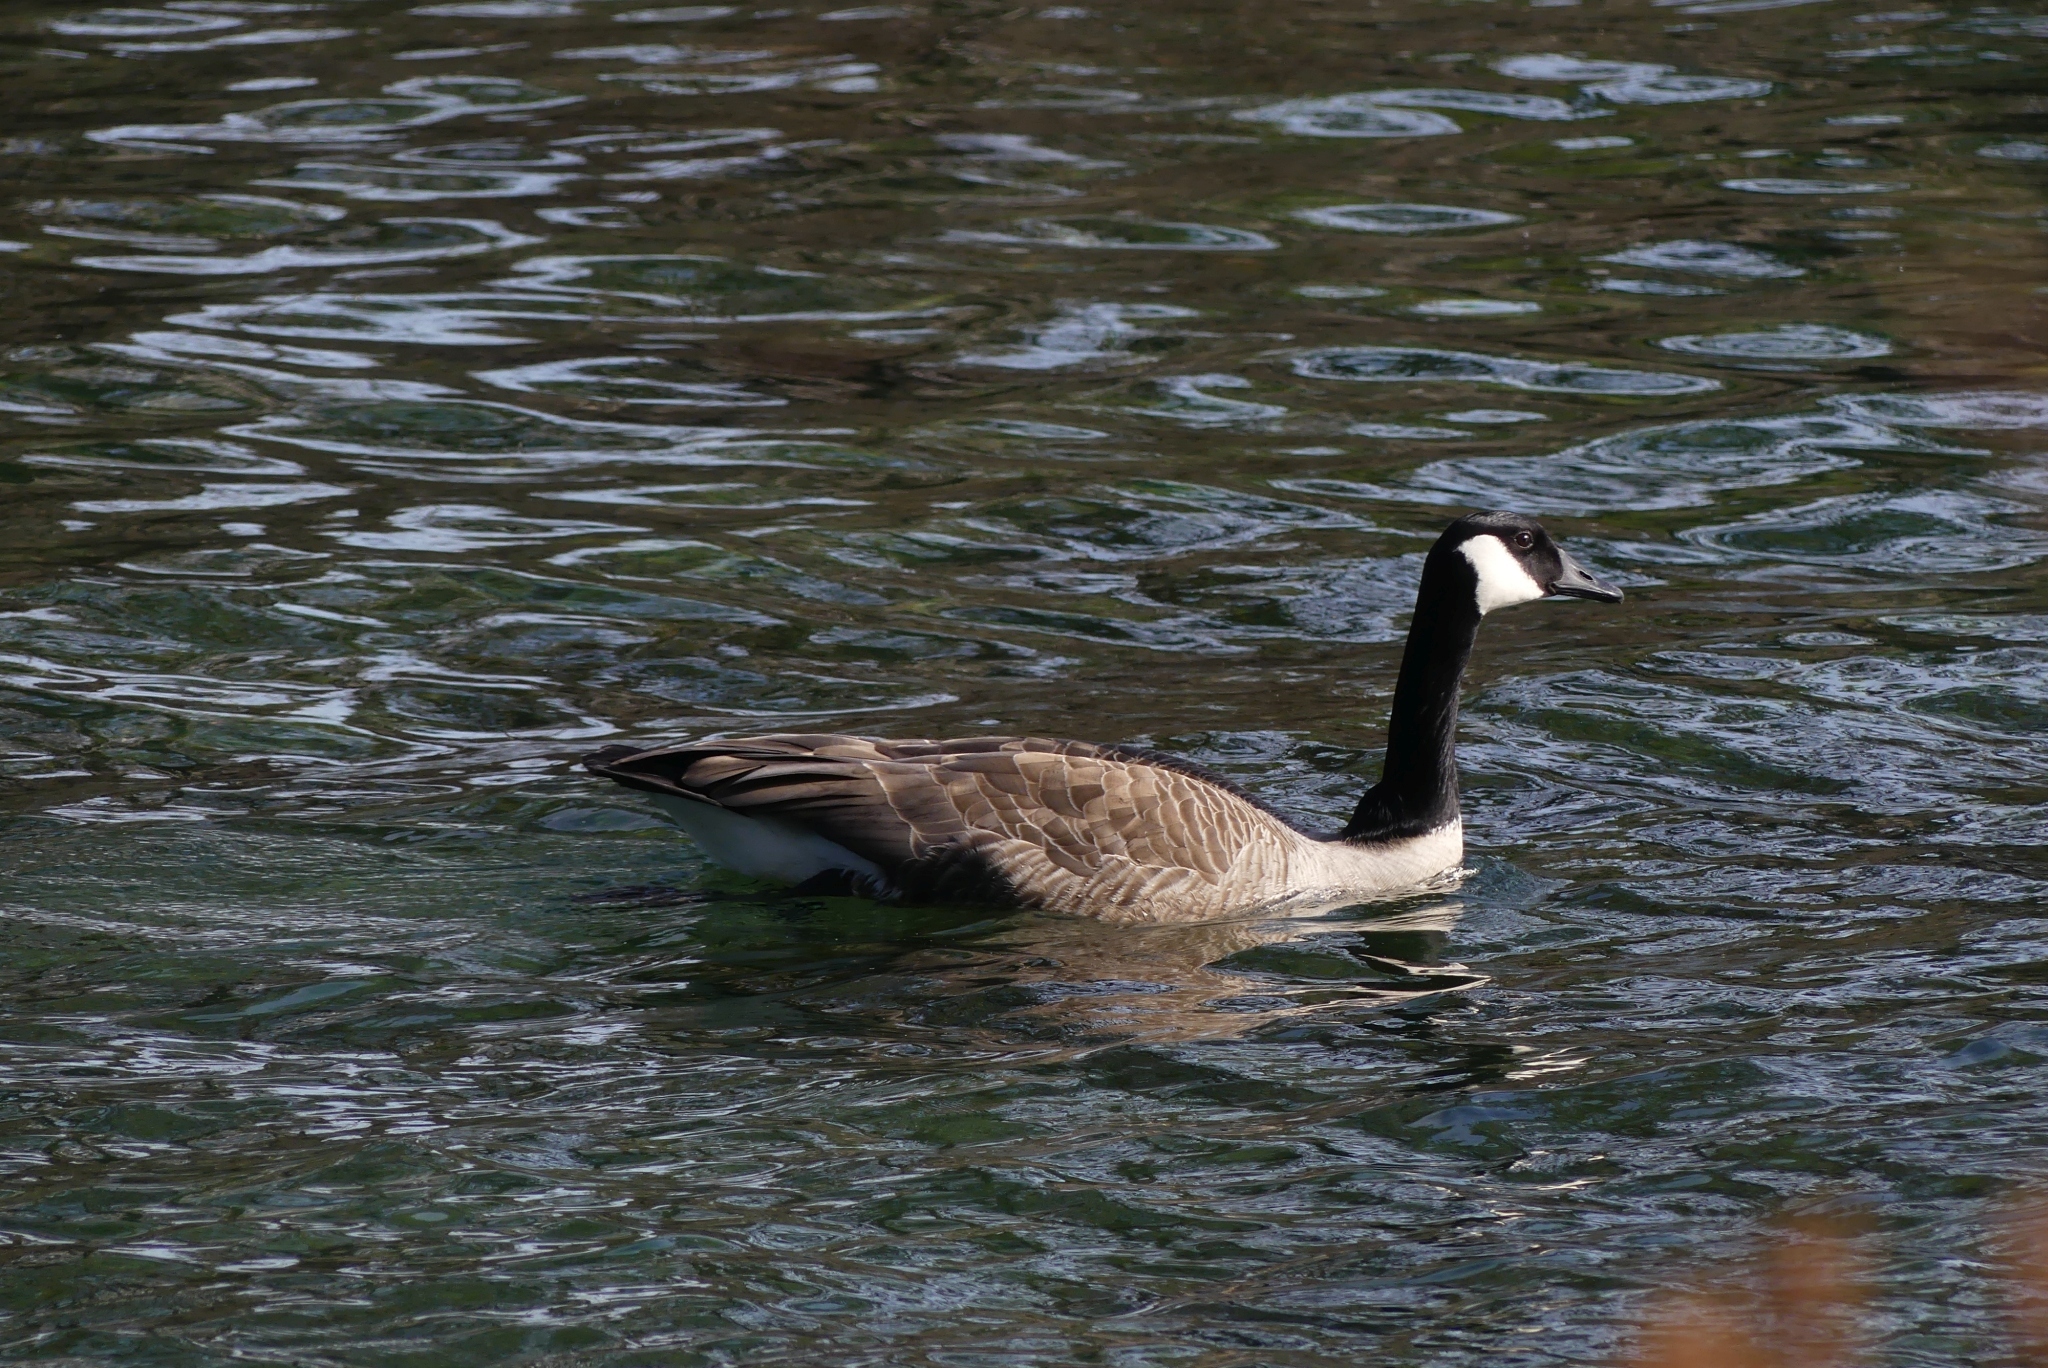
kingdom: Animalia
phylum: Chordata
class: Aves
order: Anseriformes
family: Anatidae
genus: Branta
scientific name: Branta canadensis
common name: Canada goose
